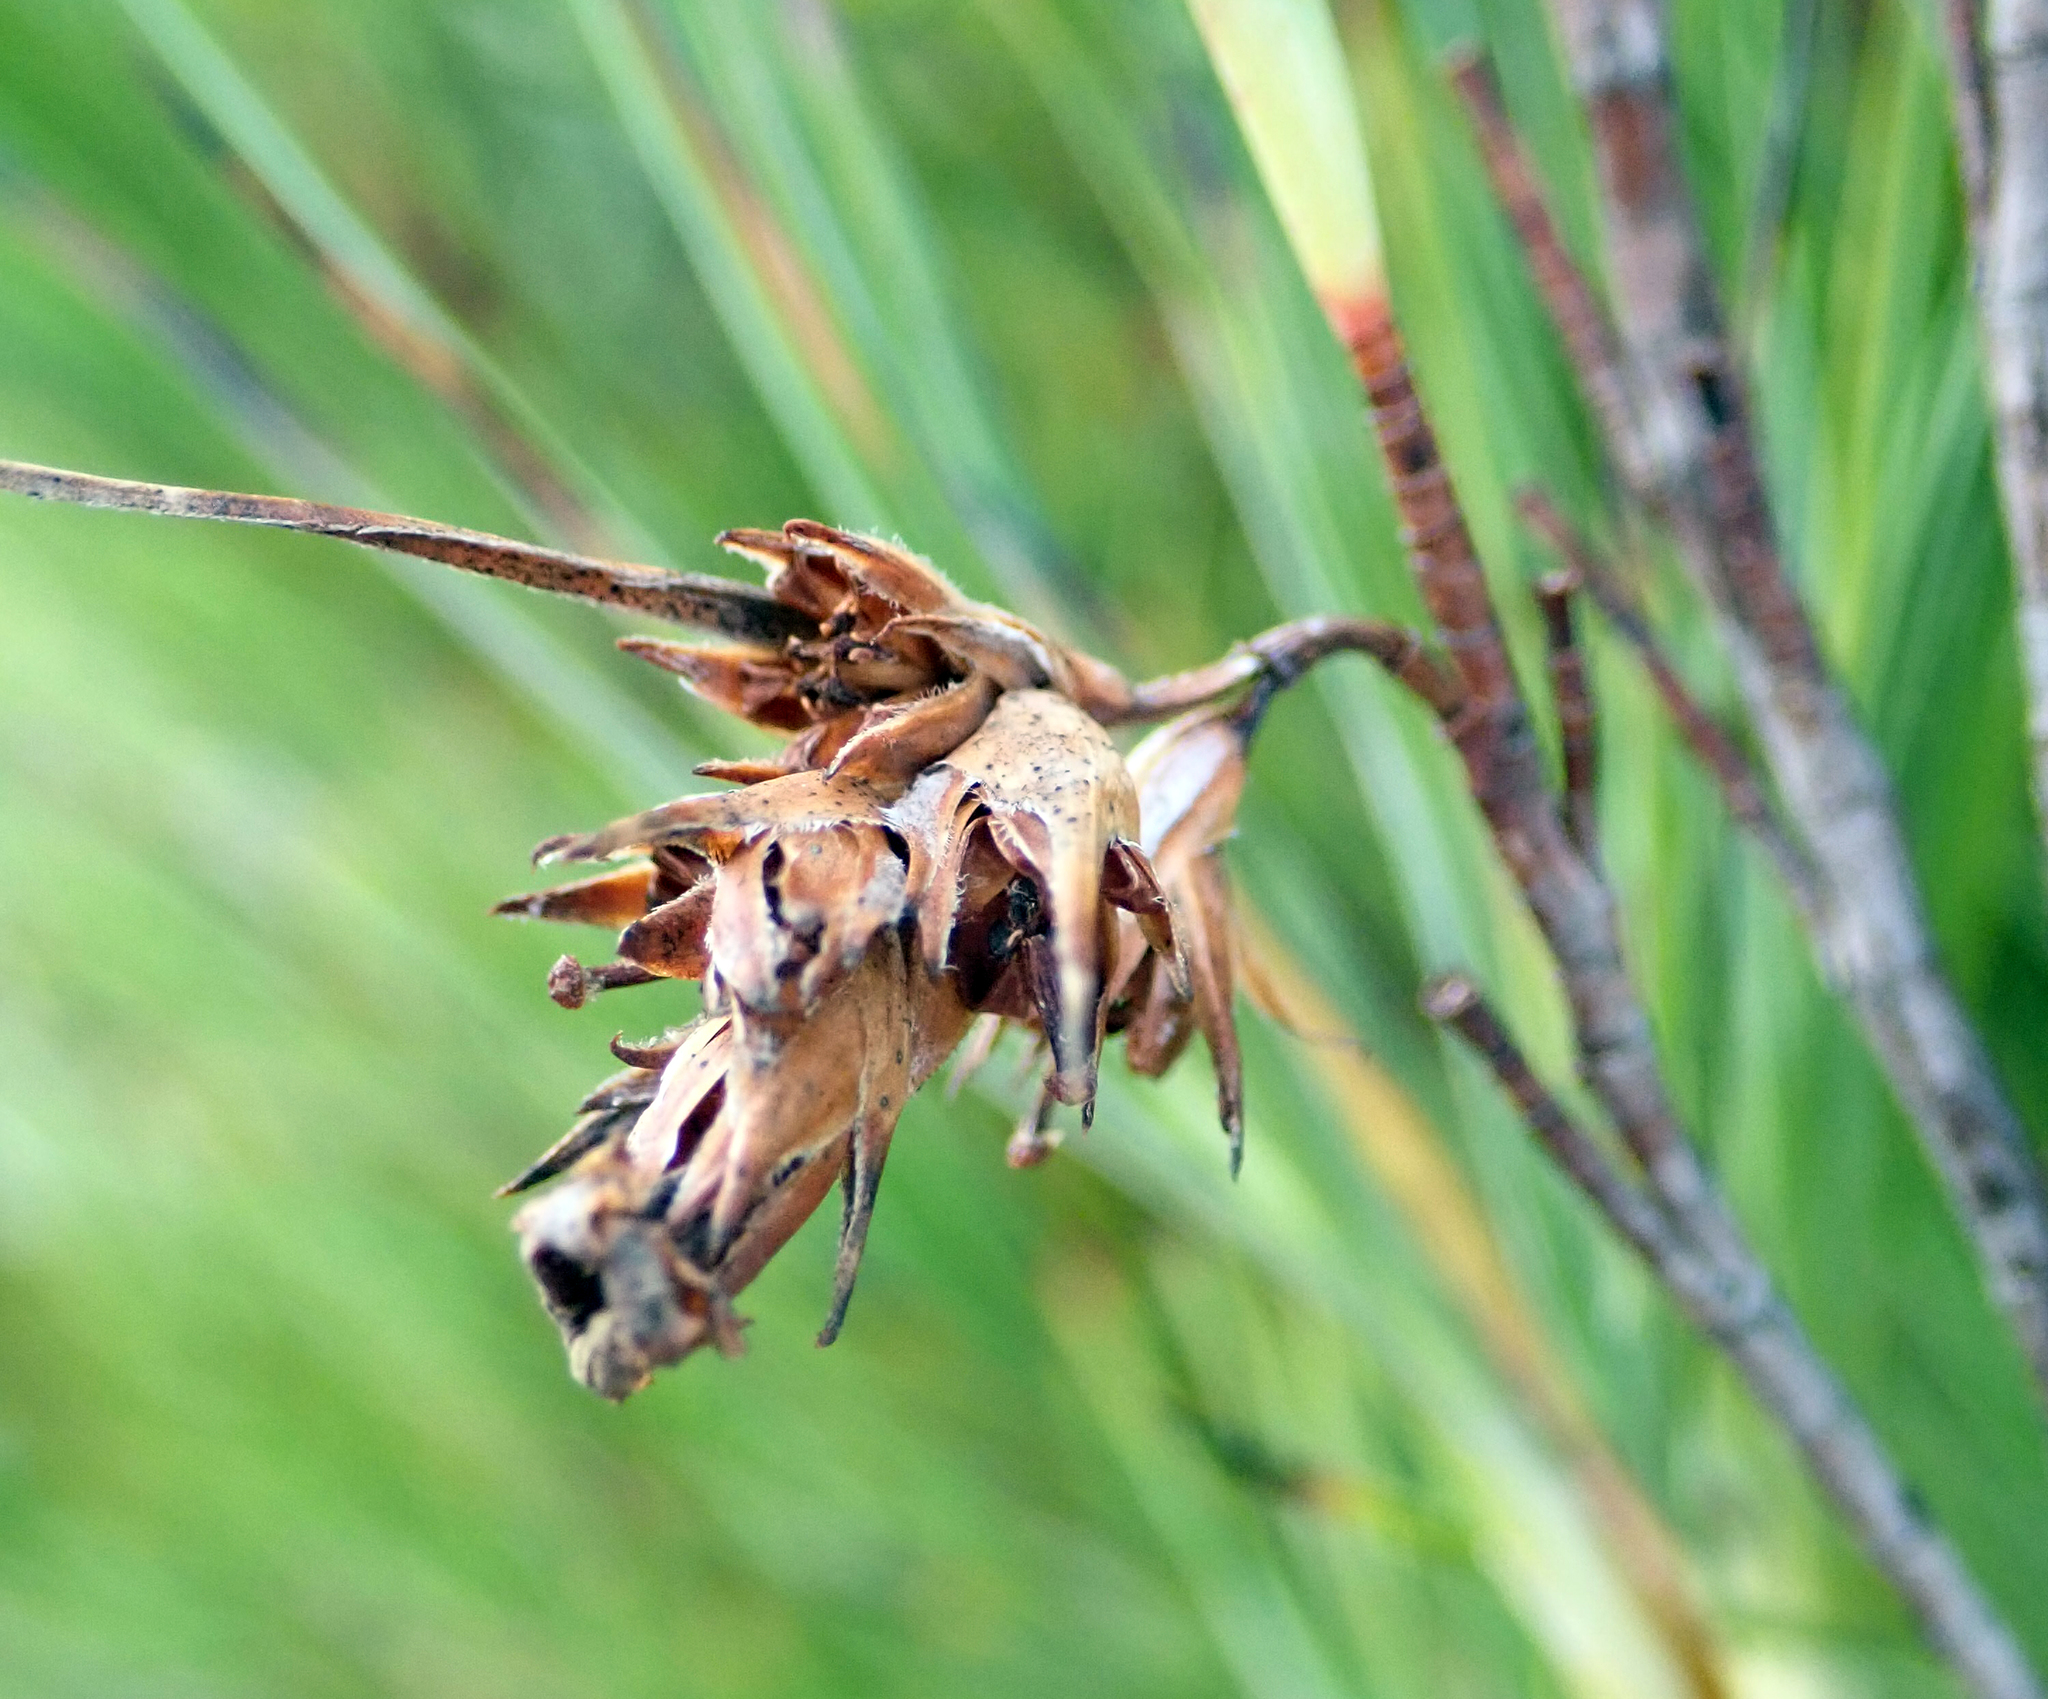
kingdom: Plantae
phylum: Tracheophyta
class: Magnoliopsida
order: Ericales
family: Ericaceae
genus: Dracophyllum
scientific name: Dracophyllum arboreum
